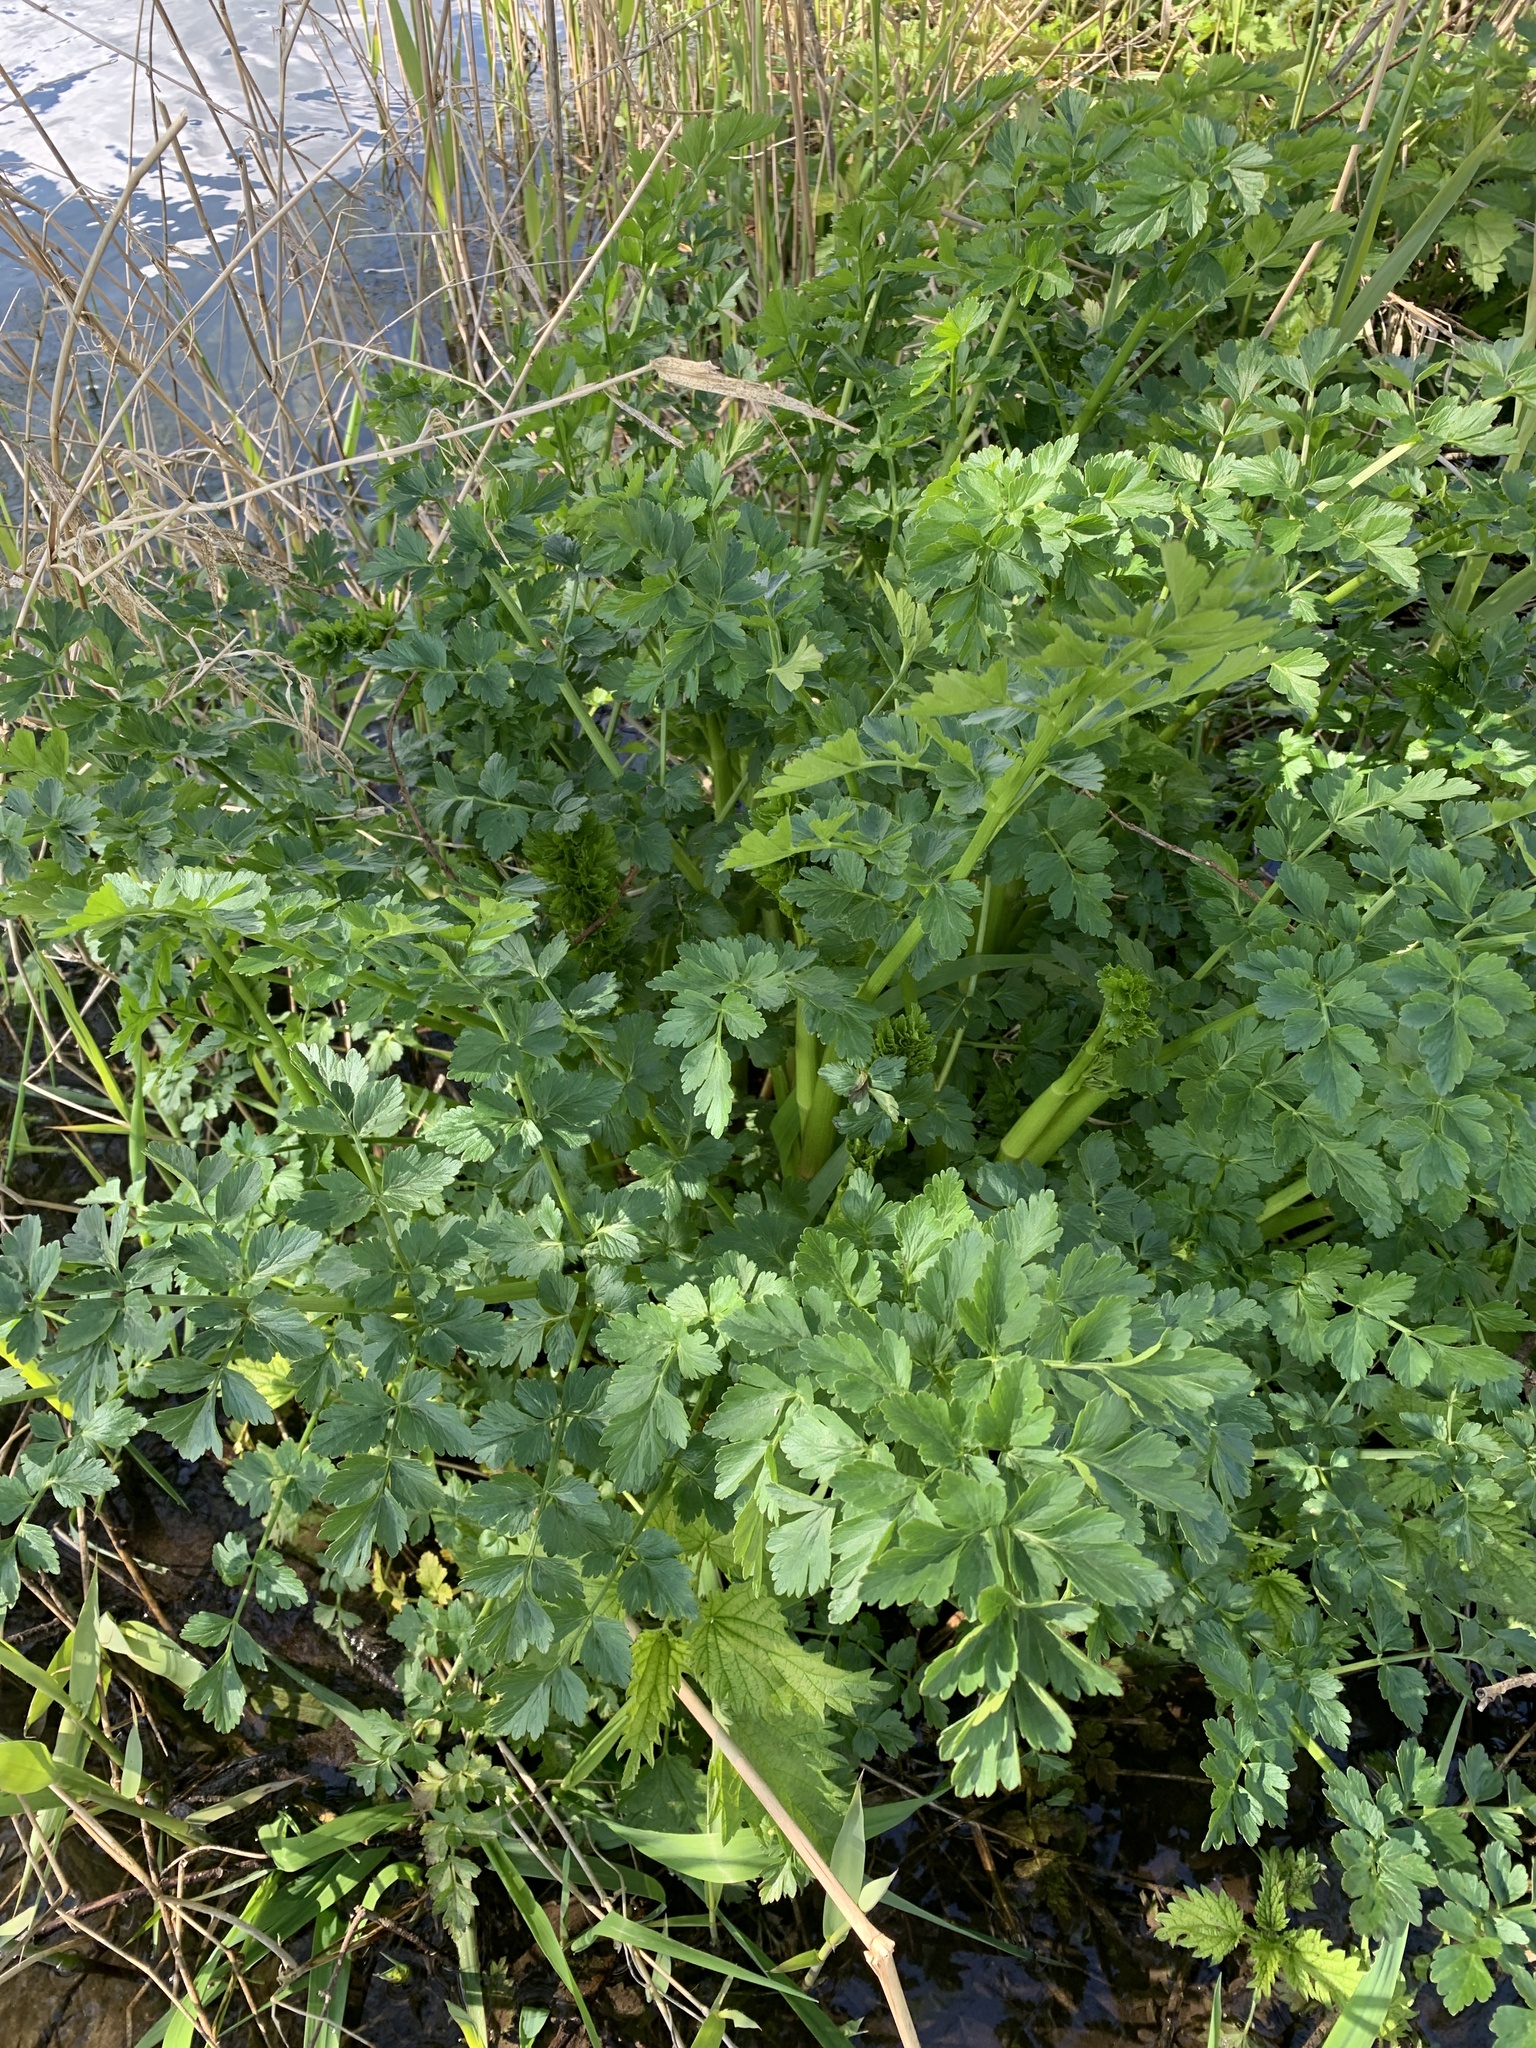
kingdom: Plantae
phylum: Tracheophyta
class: Magnoliopsida
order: Apiales
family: Apiaceae
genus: Oenanthe
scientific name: Oenanthe crocata
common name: Hemlock water-dropwort
